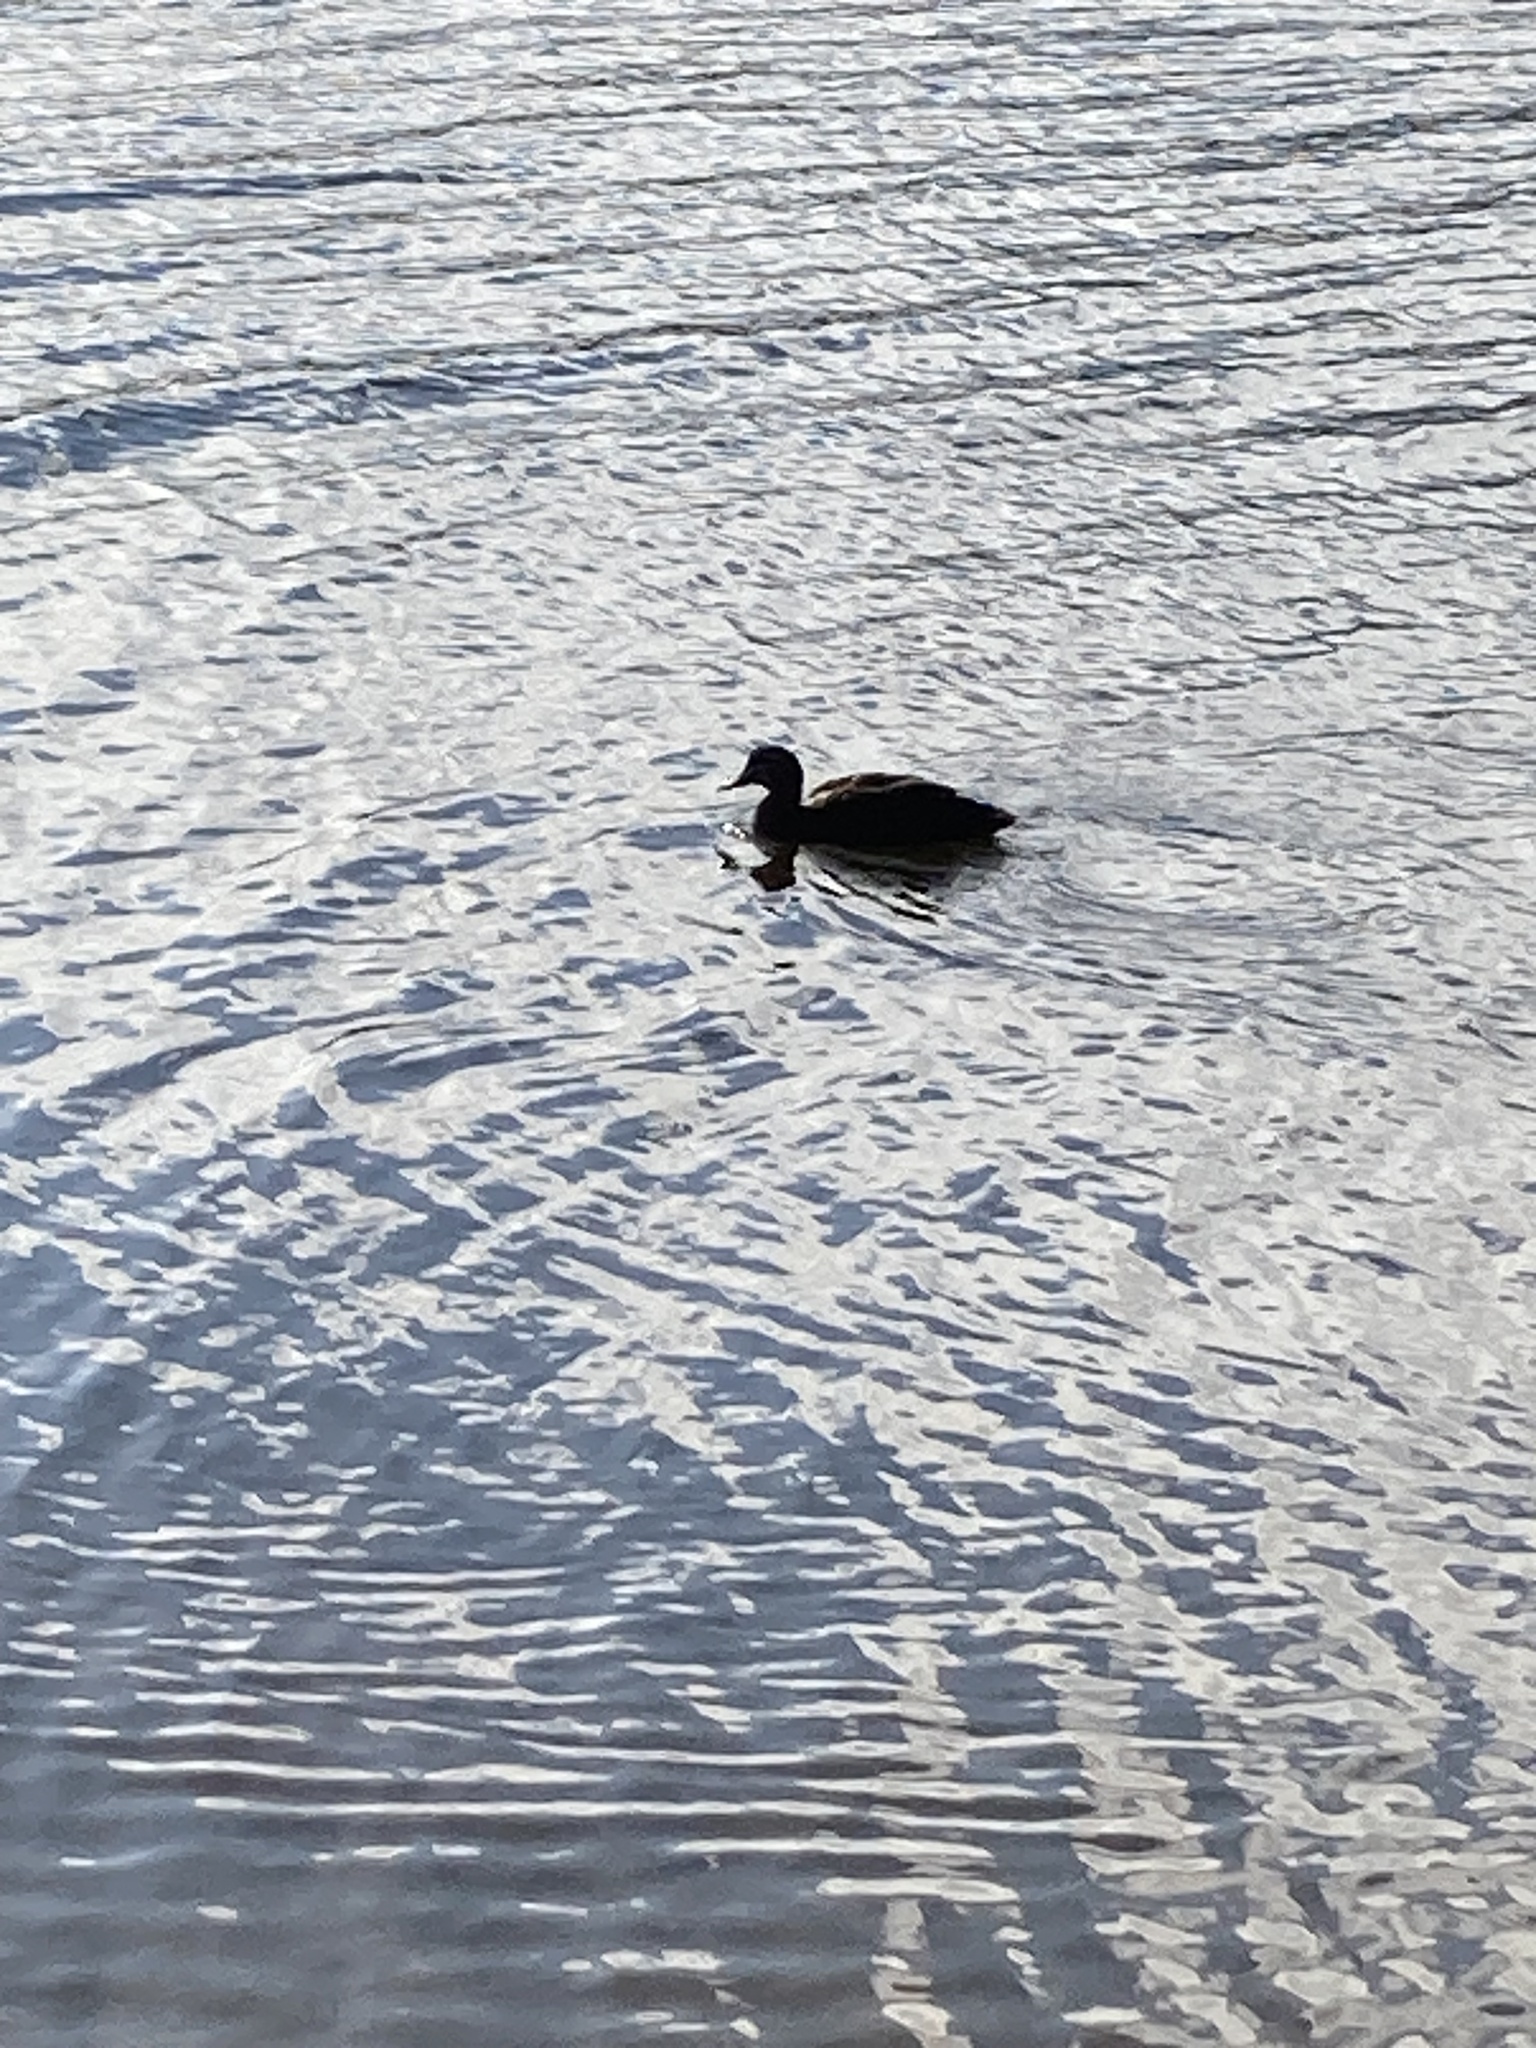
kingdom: Animalia
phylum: Chordata
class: Aves
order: Anseriformes
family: Anatidae
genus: Anas
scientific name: Anas superciliosa
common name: Pacific black duck
